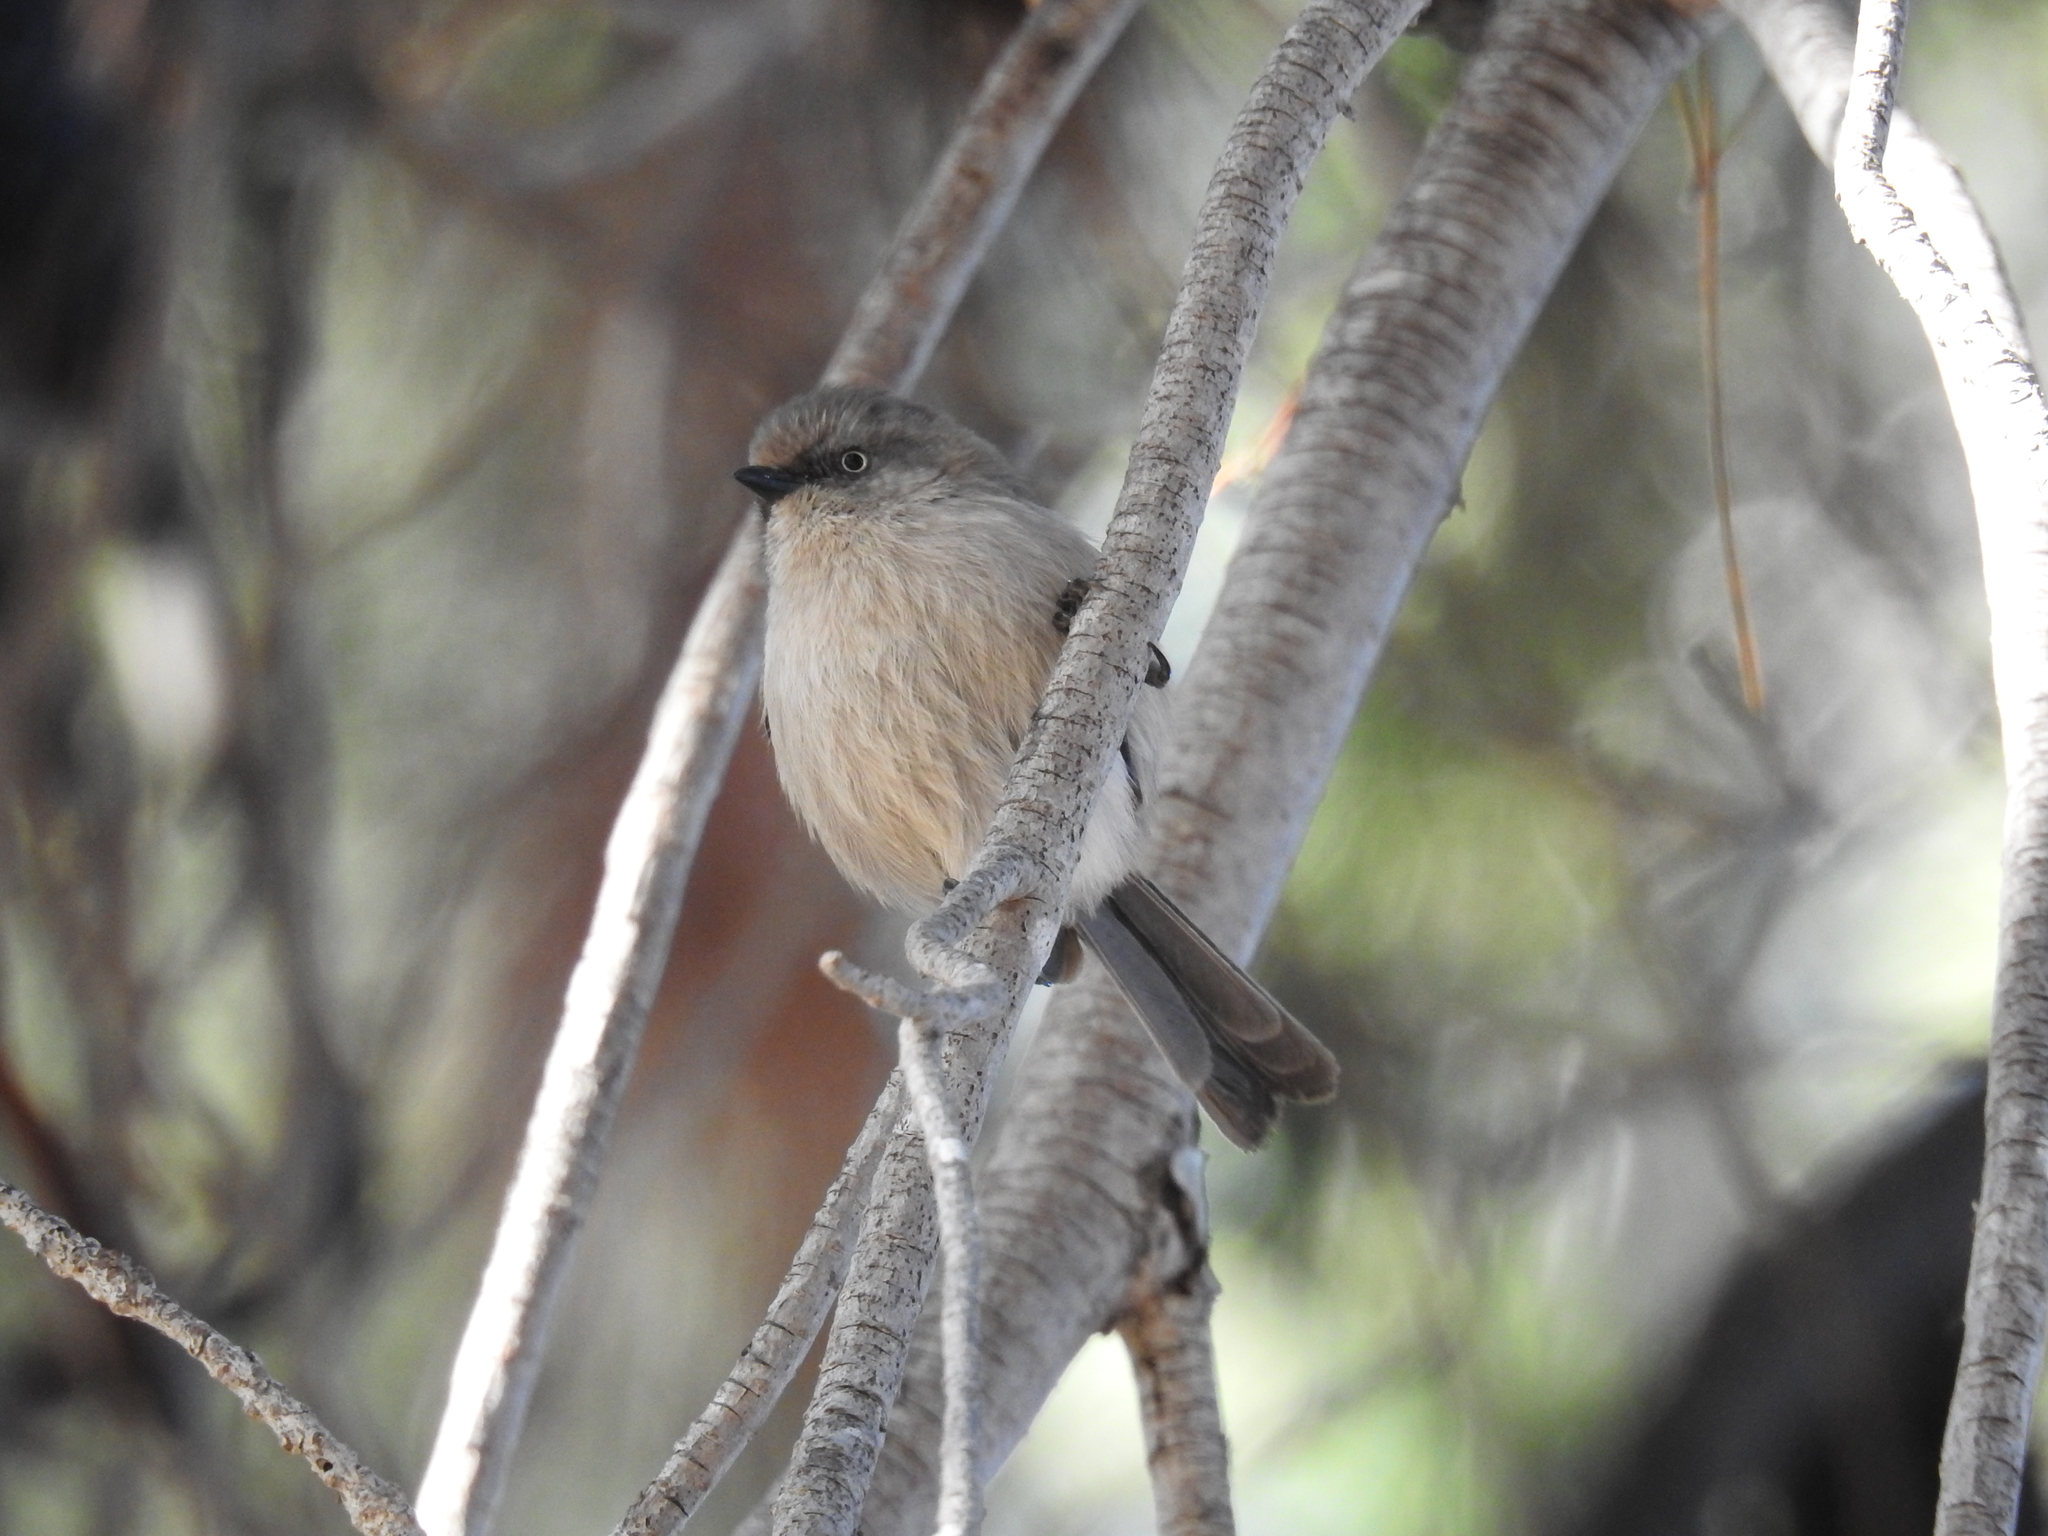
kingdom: Animalia
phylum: Chordata
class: Aves
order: Passeriformes
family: Aegithalidae
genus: Psaltriparus
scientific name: Psaltriparus minimus
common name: American bushtit
